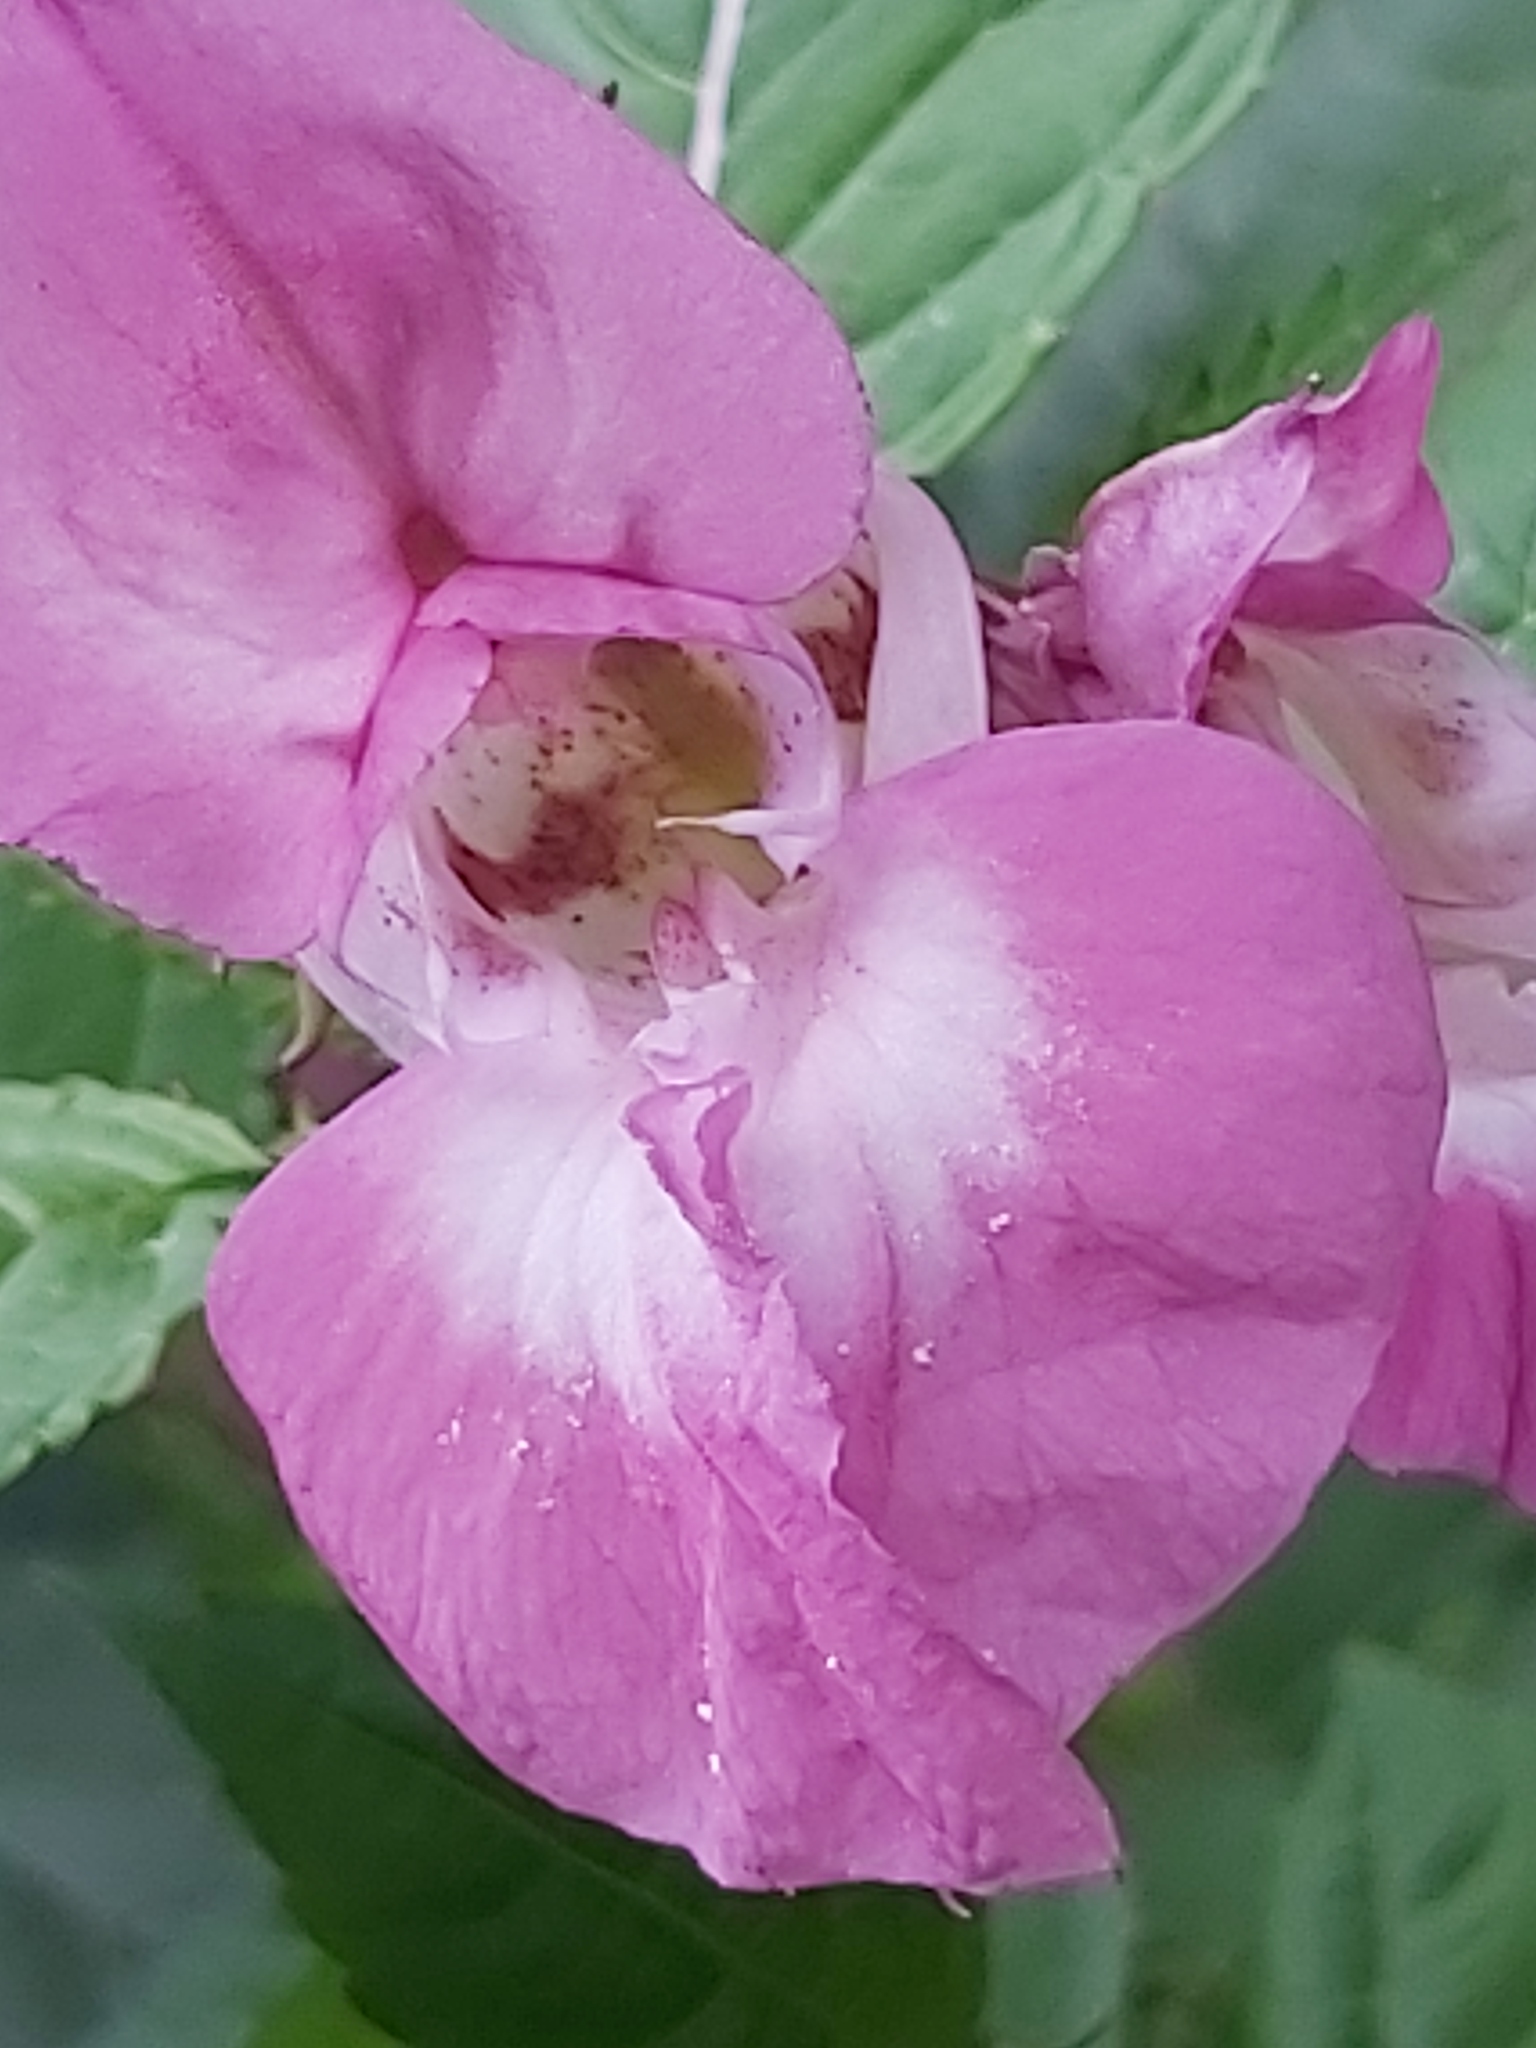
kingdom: Plantae
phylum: Tracheophyta
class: Magnoliopsida
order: Ericales
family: Balsaminaceae
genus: Impatiens
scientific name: Impatiens glandulifera
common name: Himalayan balsam
